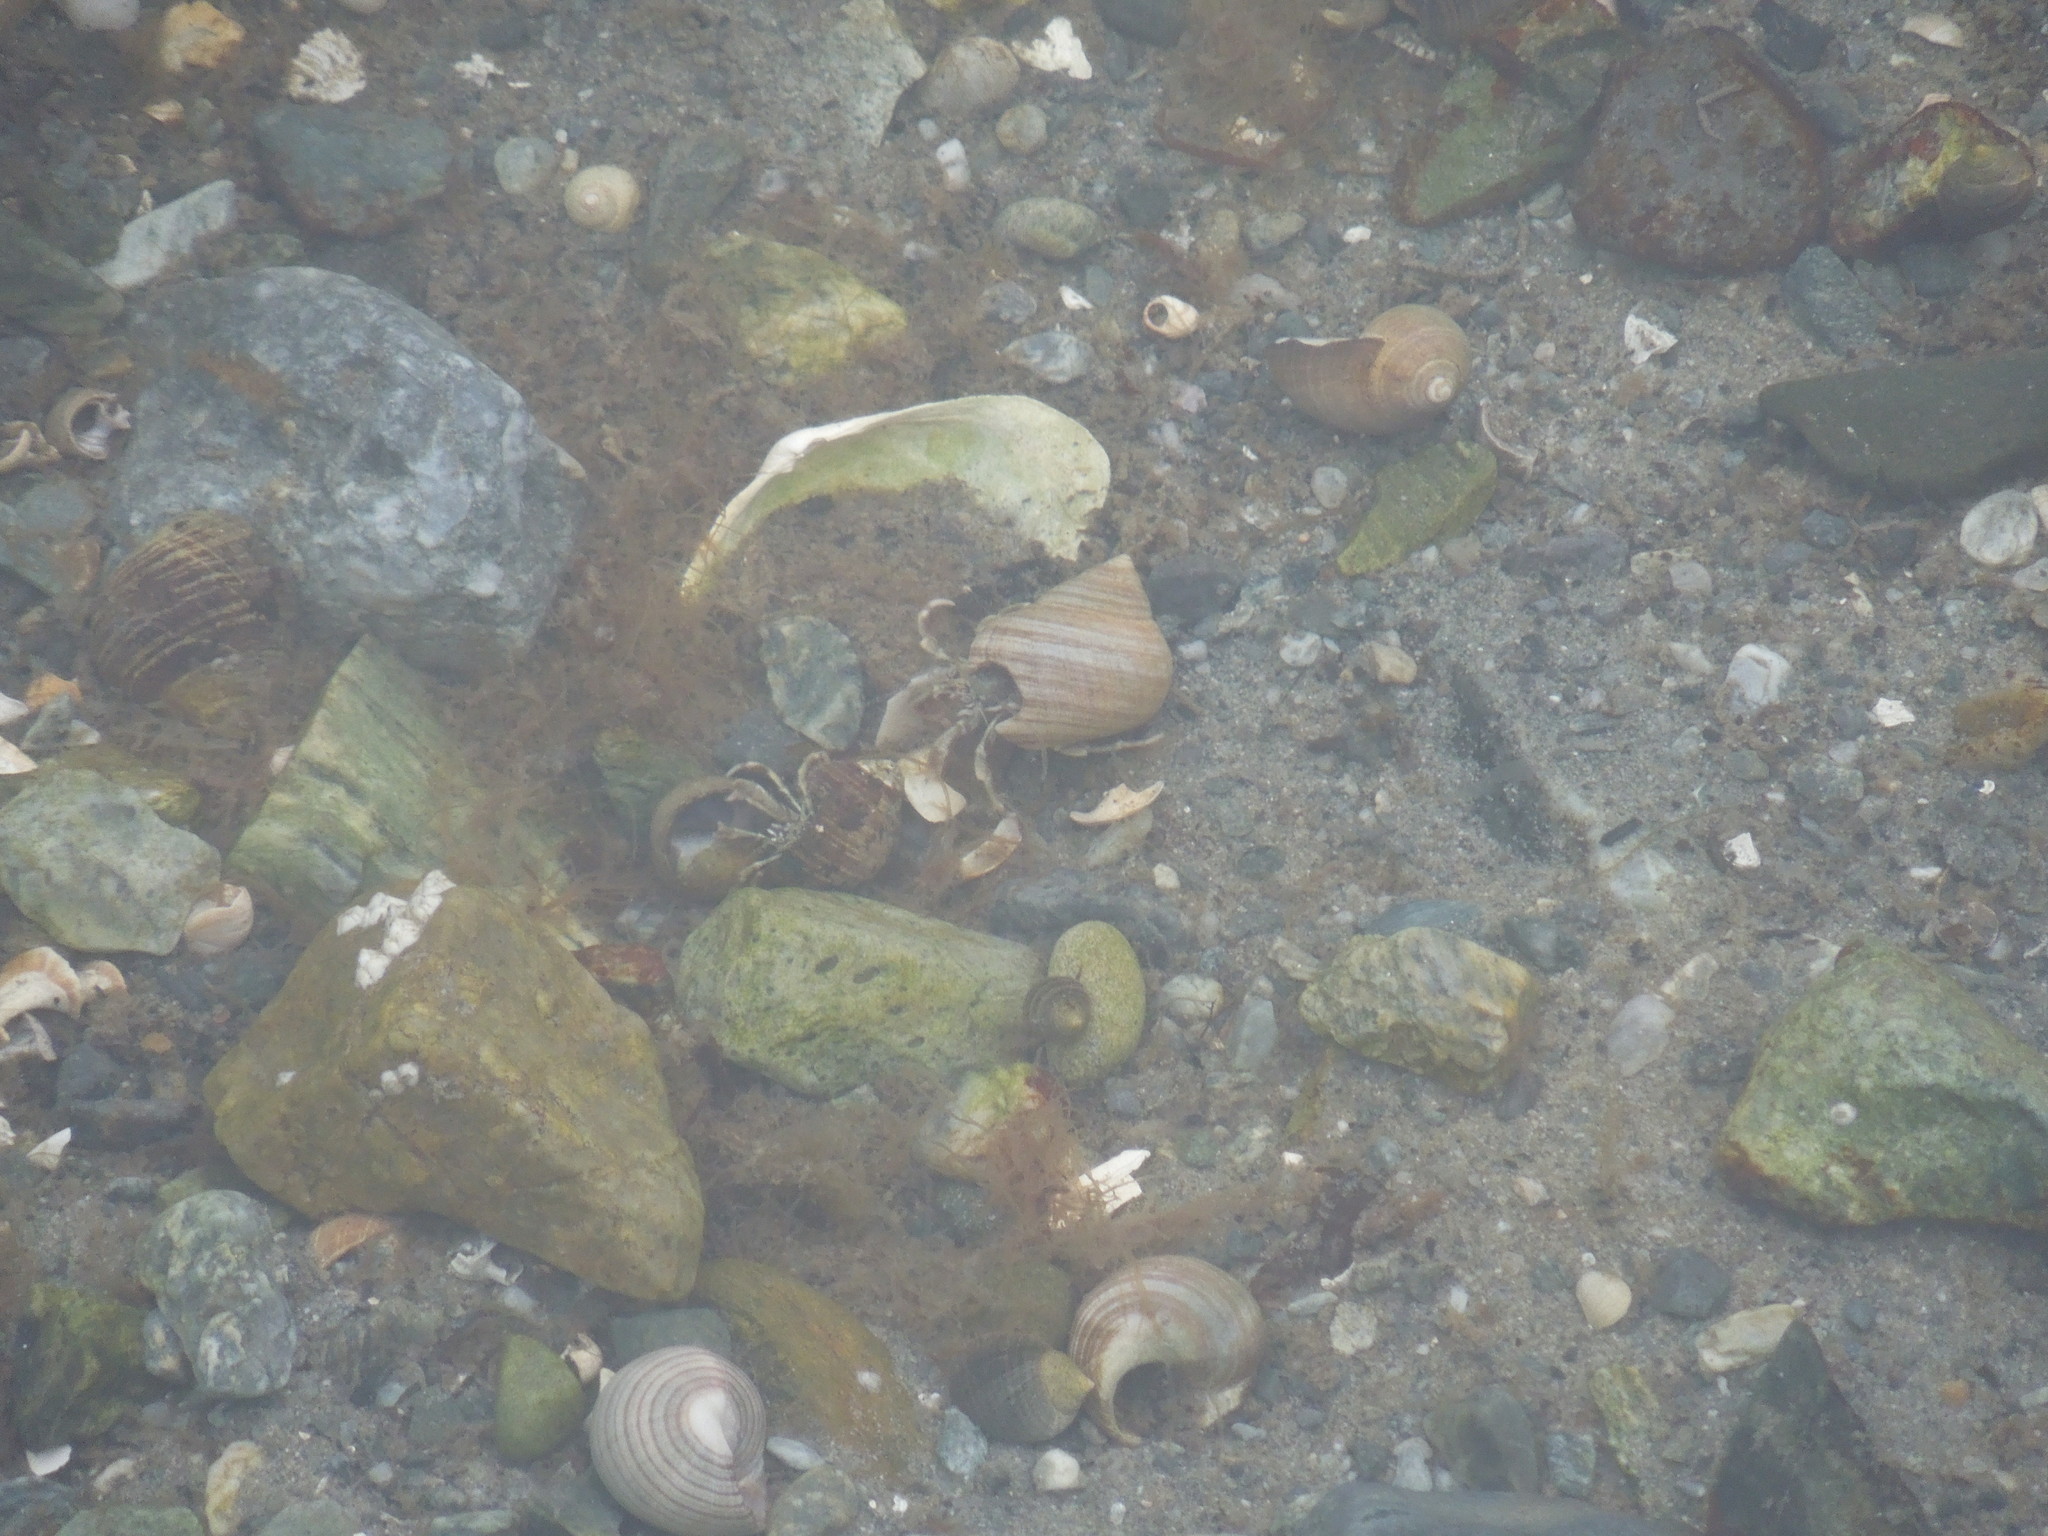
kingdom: Animalia
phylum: Arthropoda
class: Malacostraca
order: Decapoda
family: Paguridae
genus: Pagurus
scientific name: Pagurus longicarpus
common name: Long-armed hermit crab
